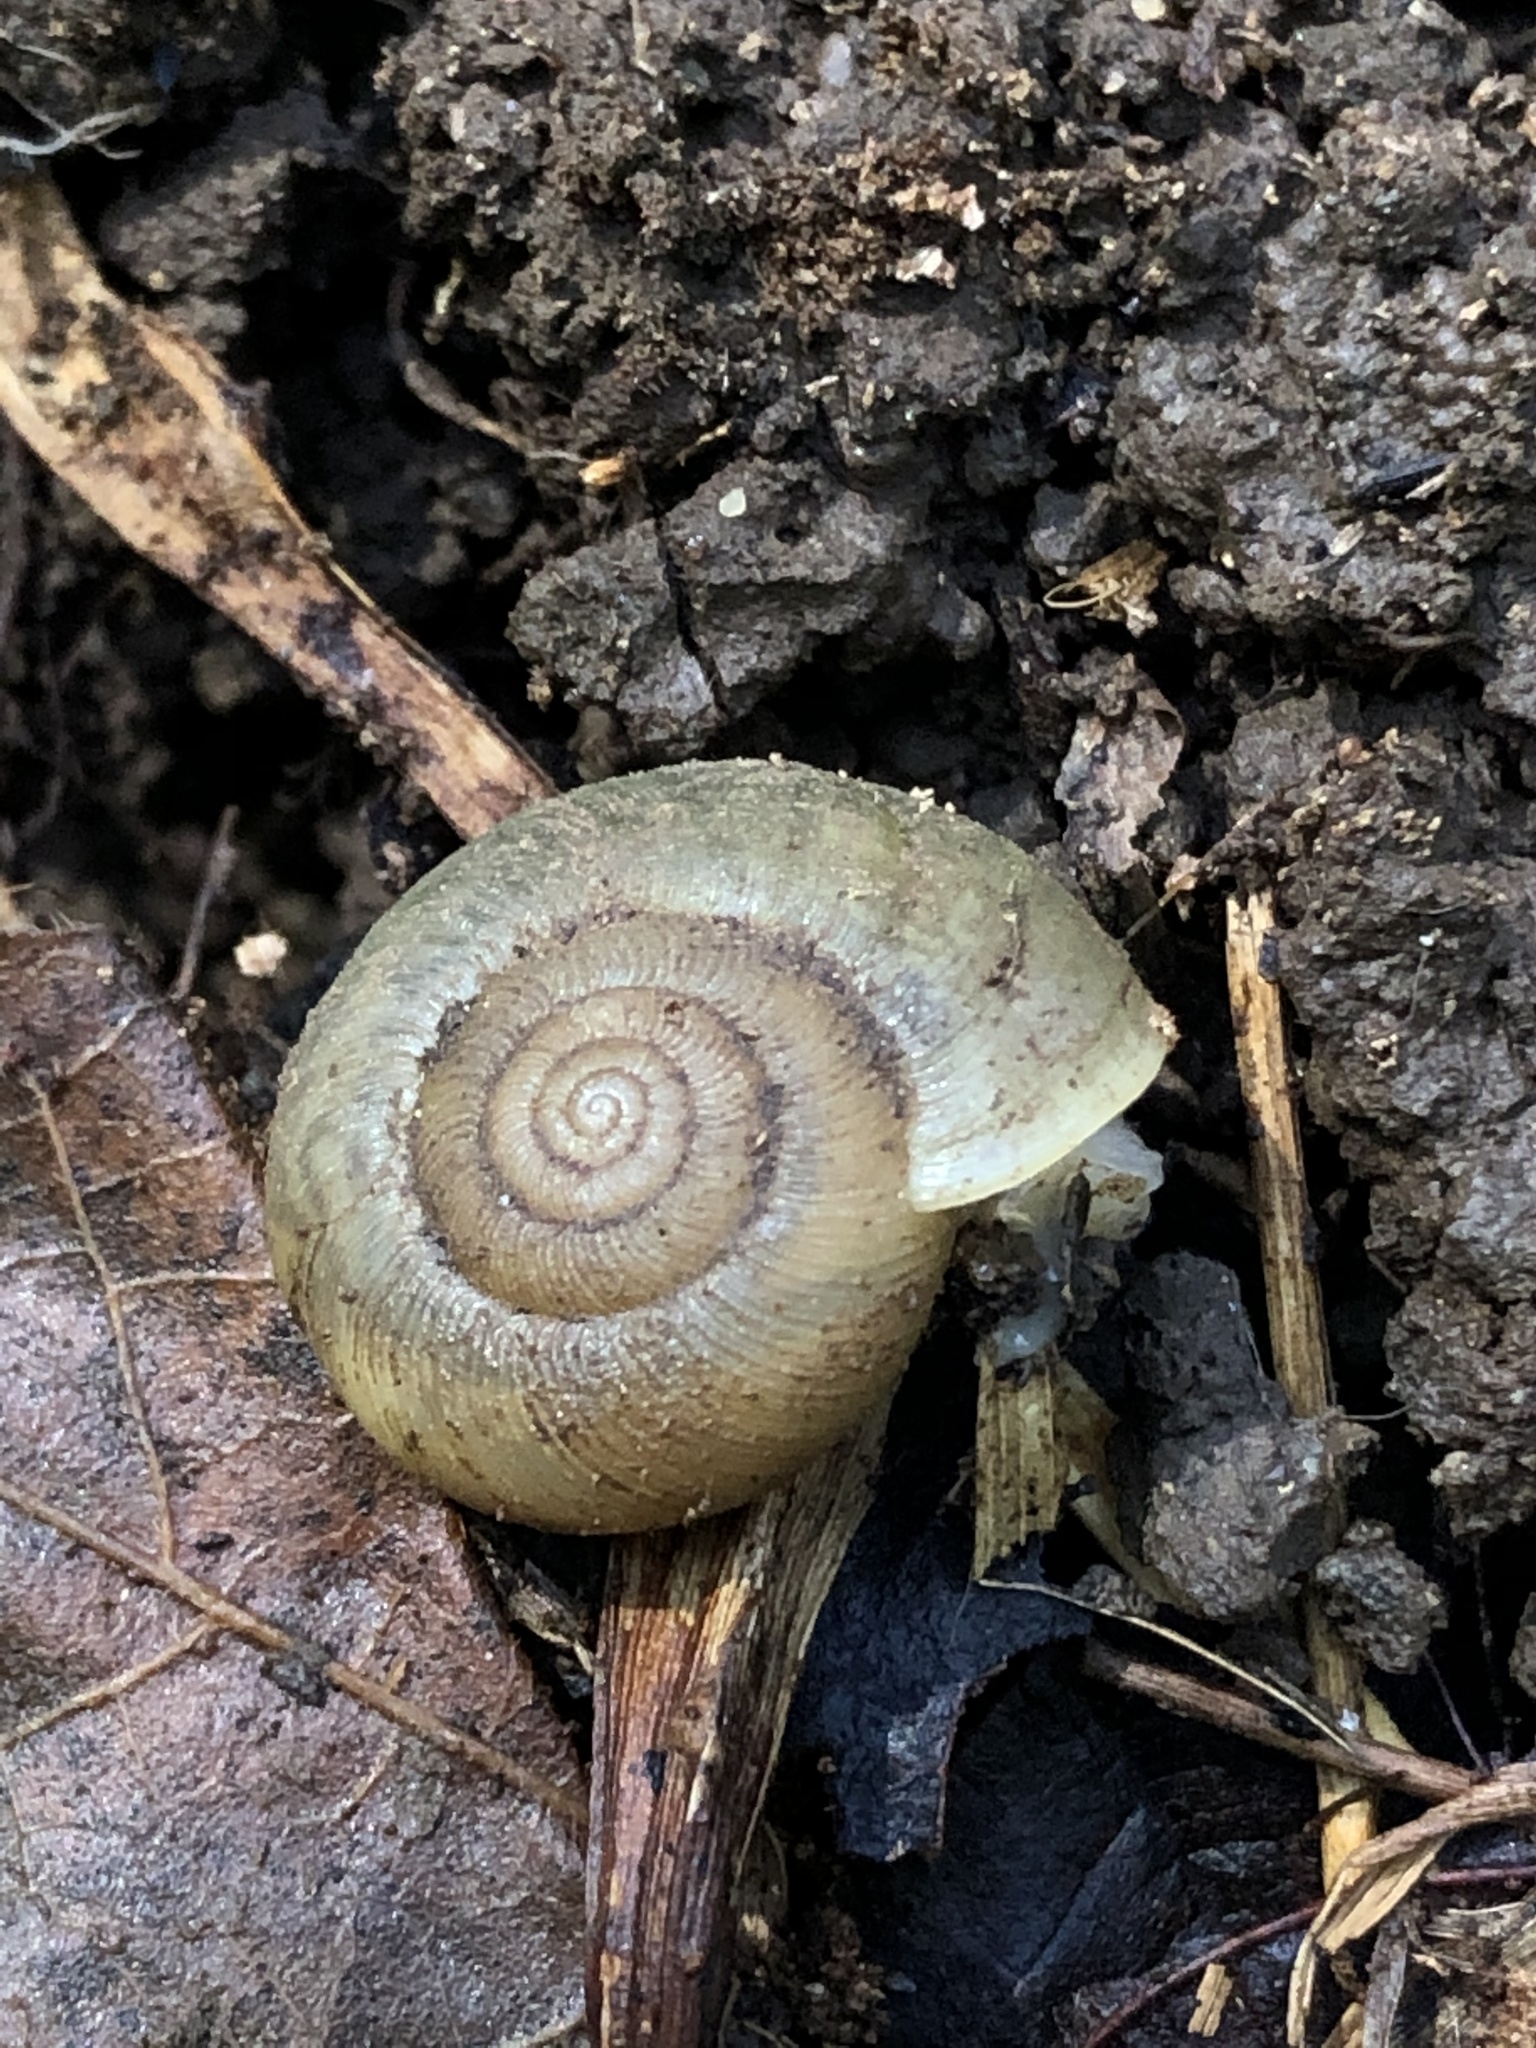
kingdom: Animalia
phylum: Mollusca
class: Gastropoda
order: Stylommatophora
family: Haplotrematidae
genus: Ancotrema
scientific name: Ancotrema sportella
